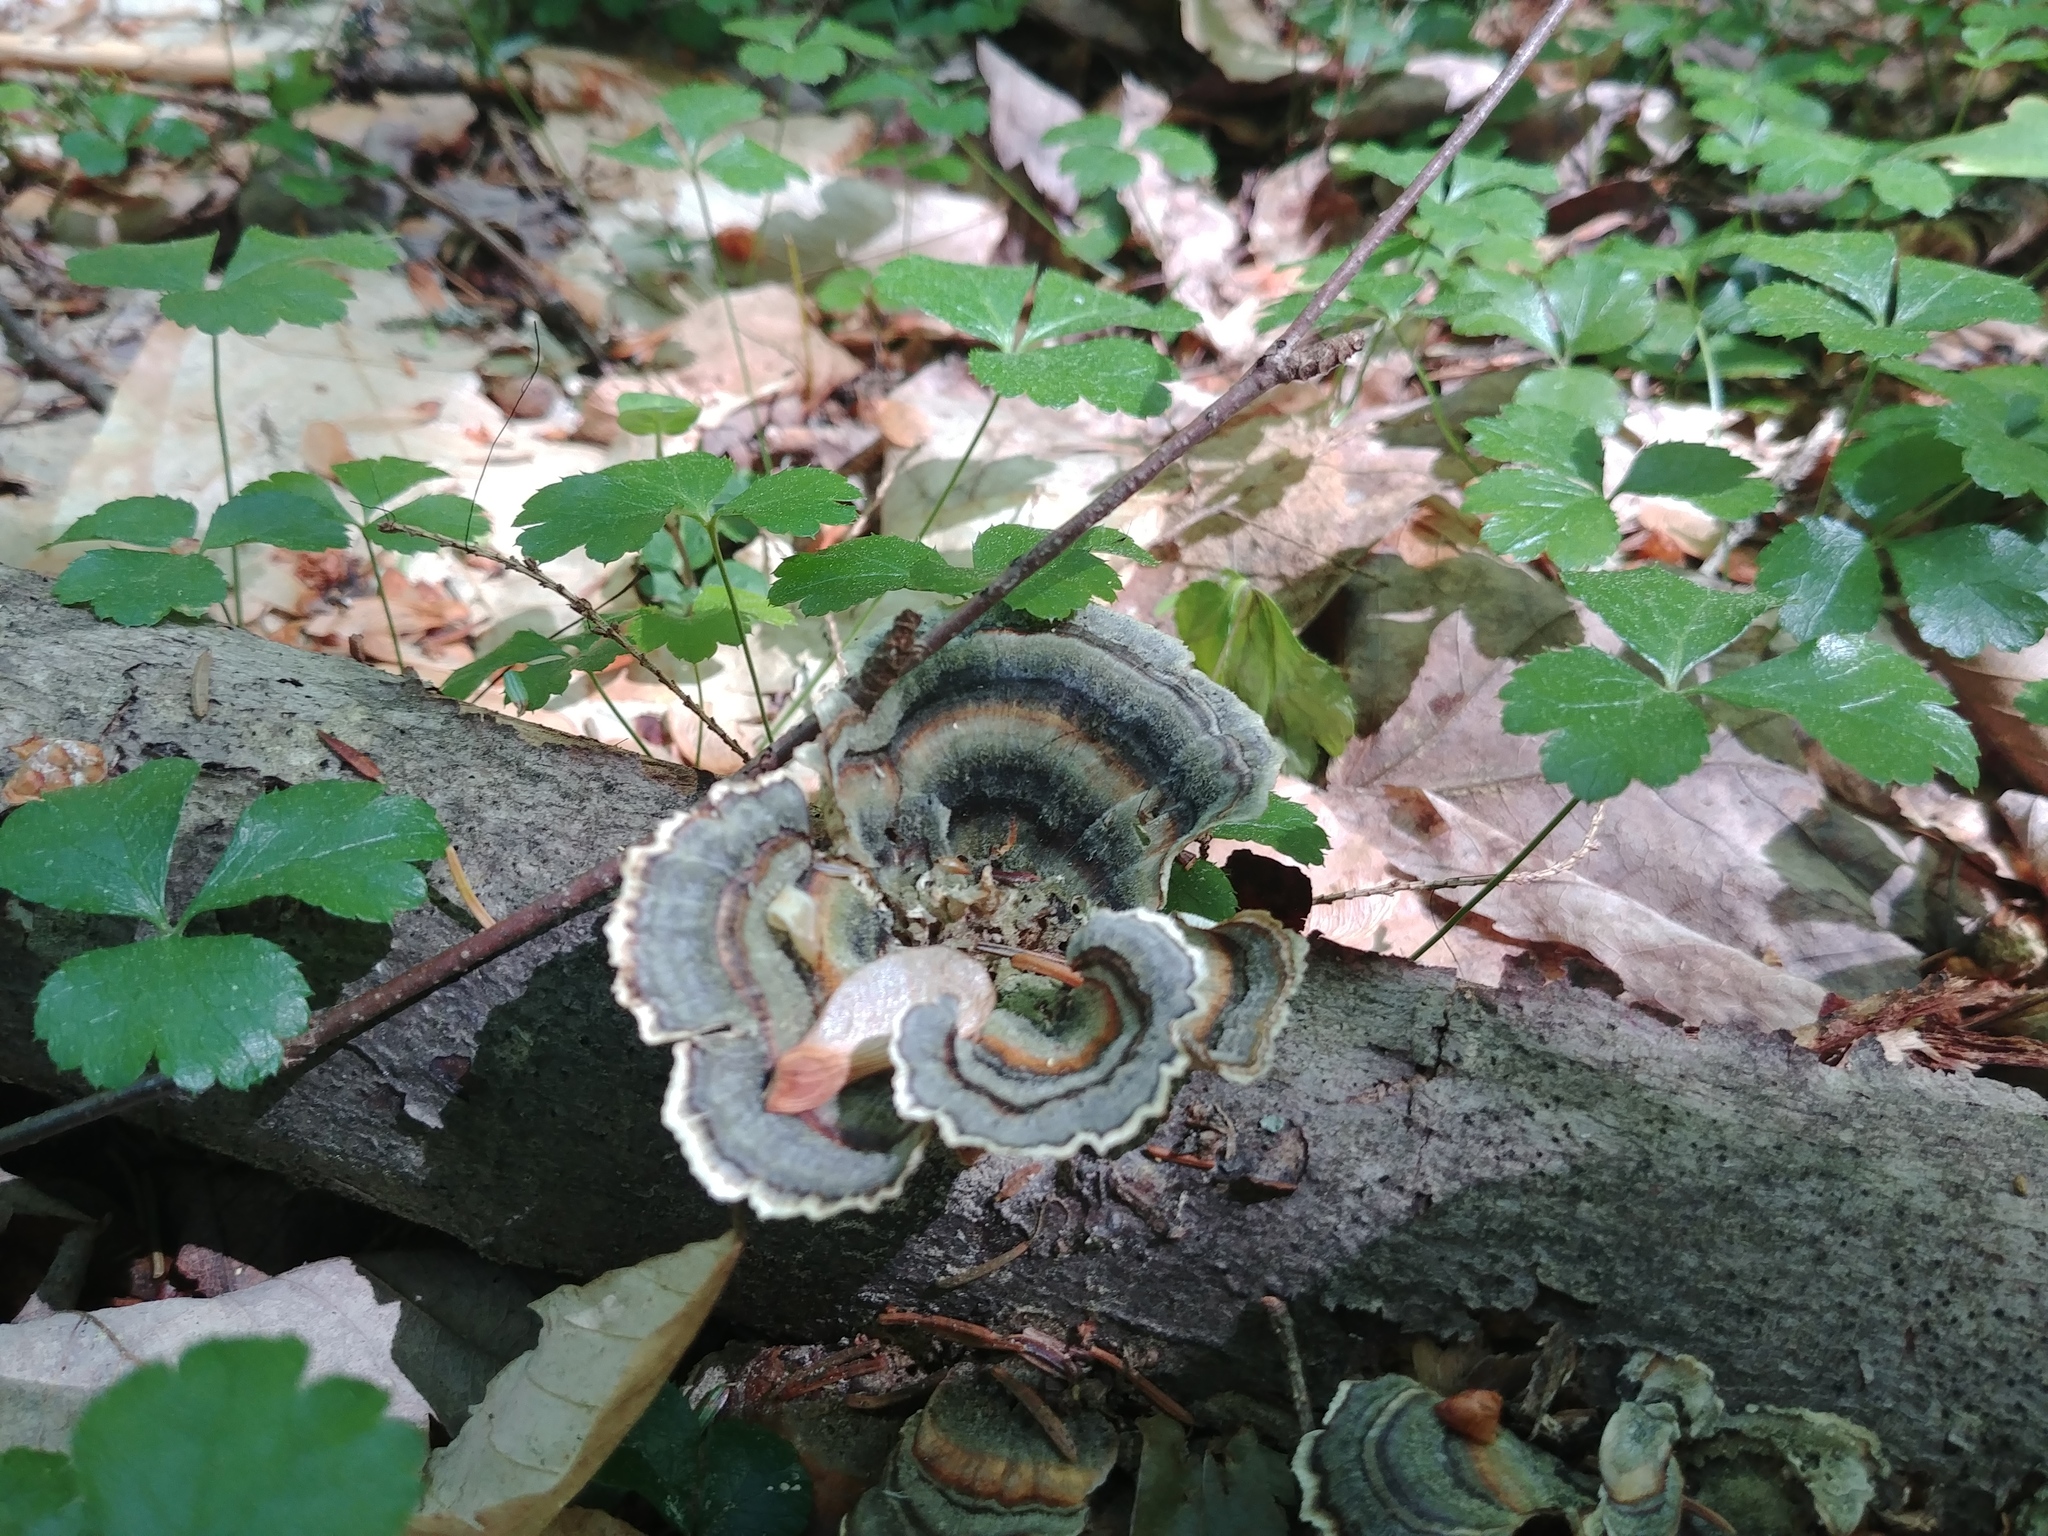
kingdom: Fungi
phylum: Basidiomycota
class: Agaricomycetes
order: Polyporales
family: Polyporaceae
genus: Trametes
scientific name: Trametes versicolor
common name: Turkeytail
